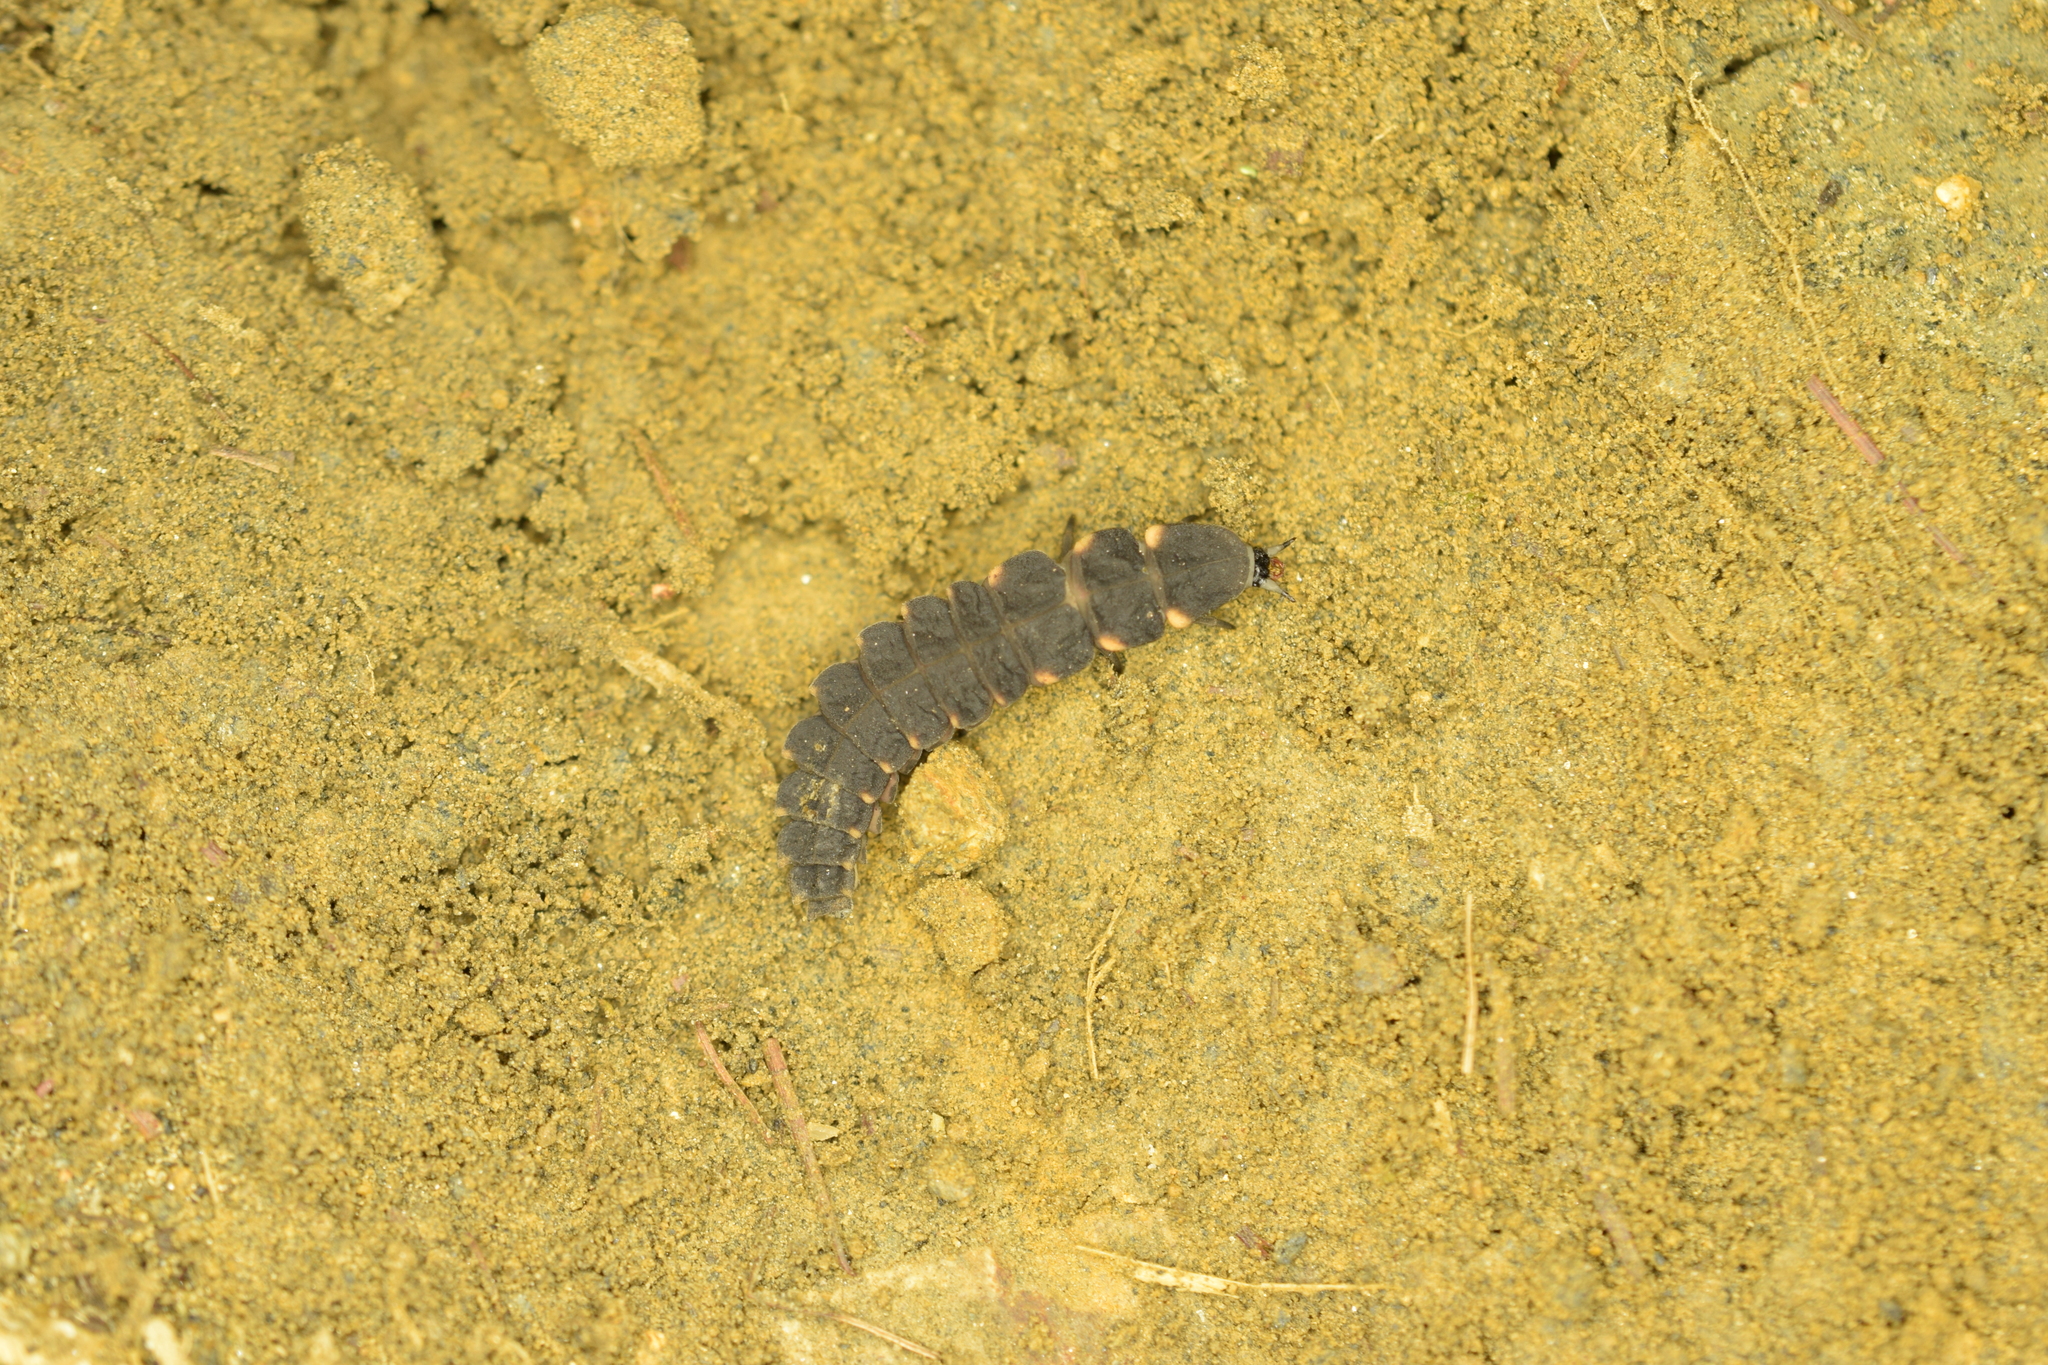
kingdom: Animalia
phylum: Arthropoda
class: Insecta
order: Coleoptera
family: Lampyridae
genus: Lampyris
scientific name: Lampyris noctiluca
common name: Glow-worm
